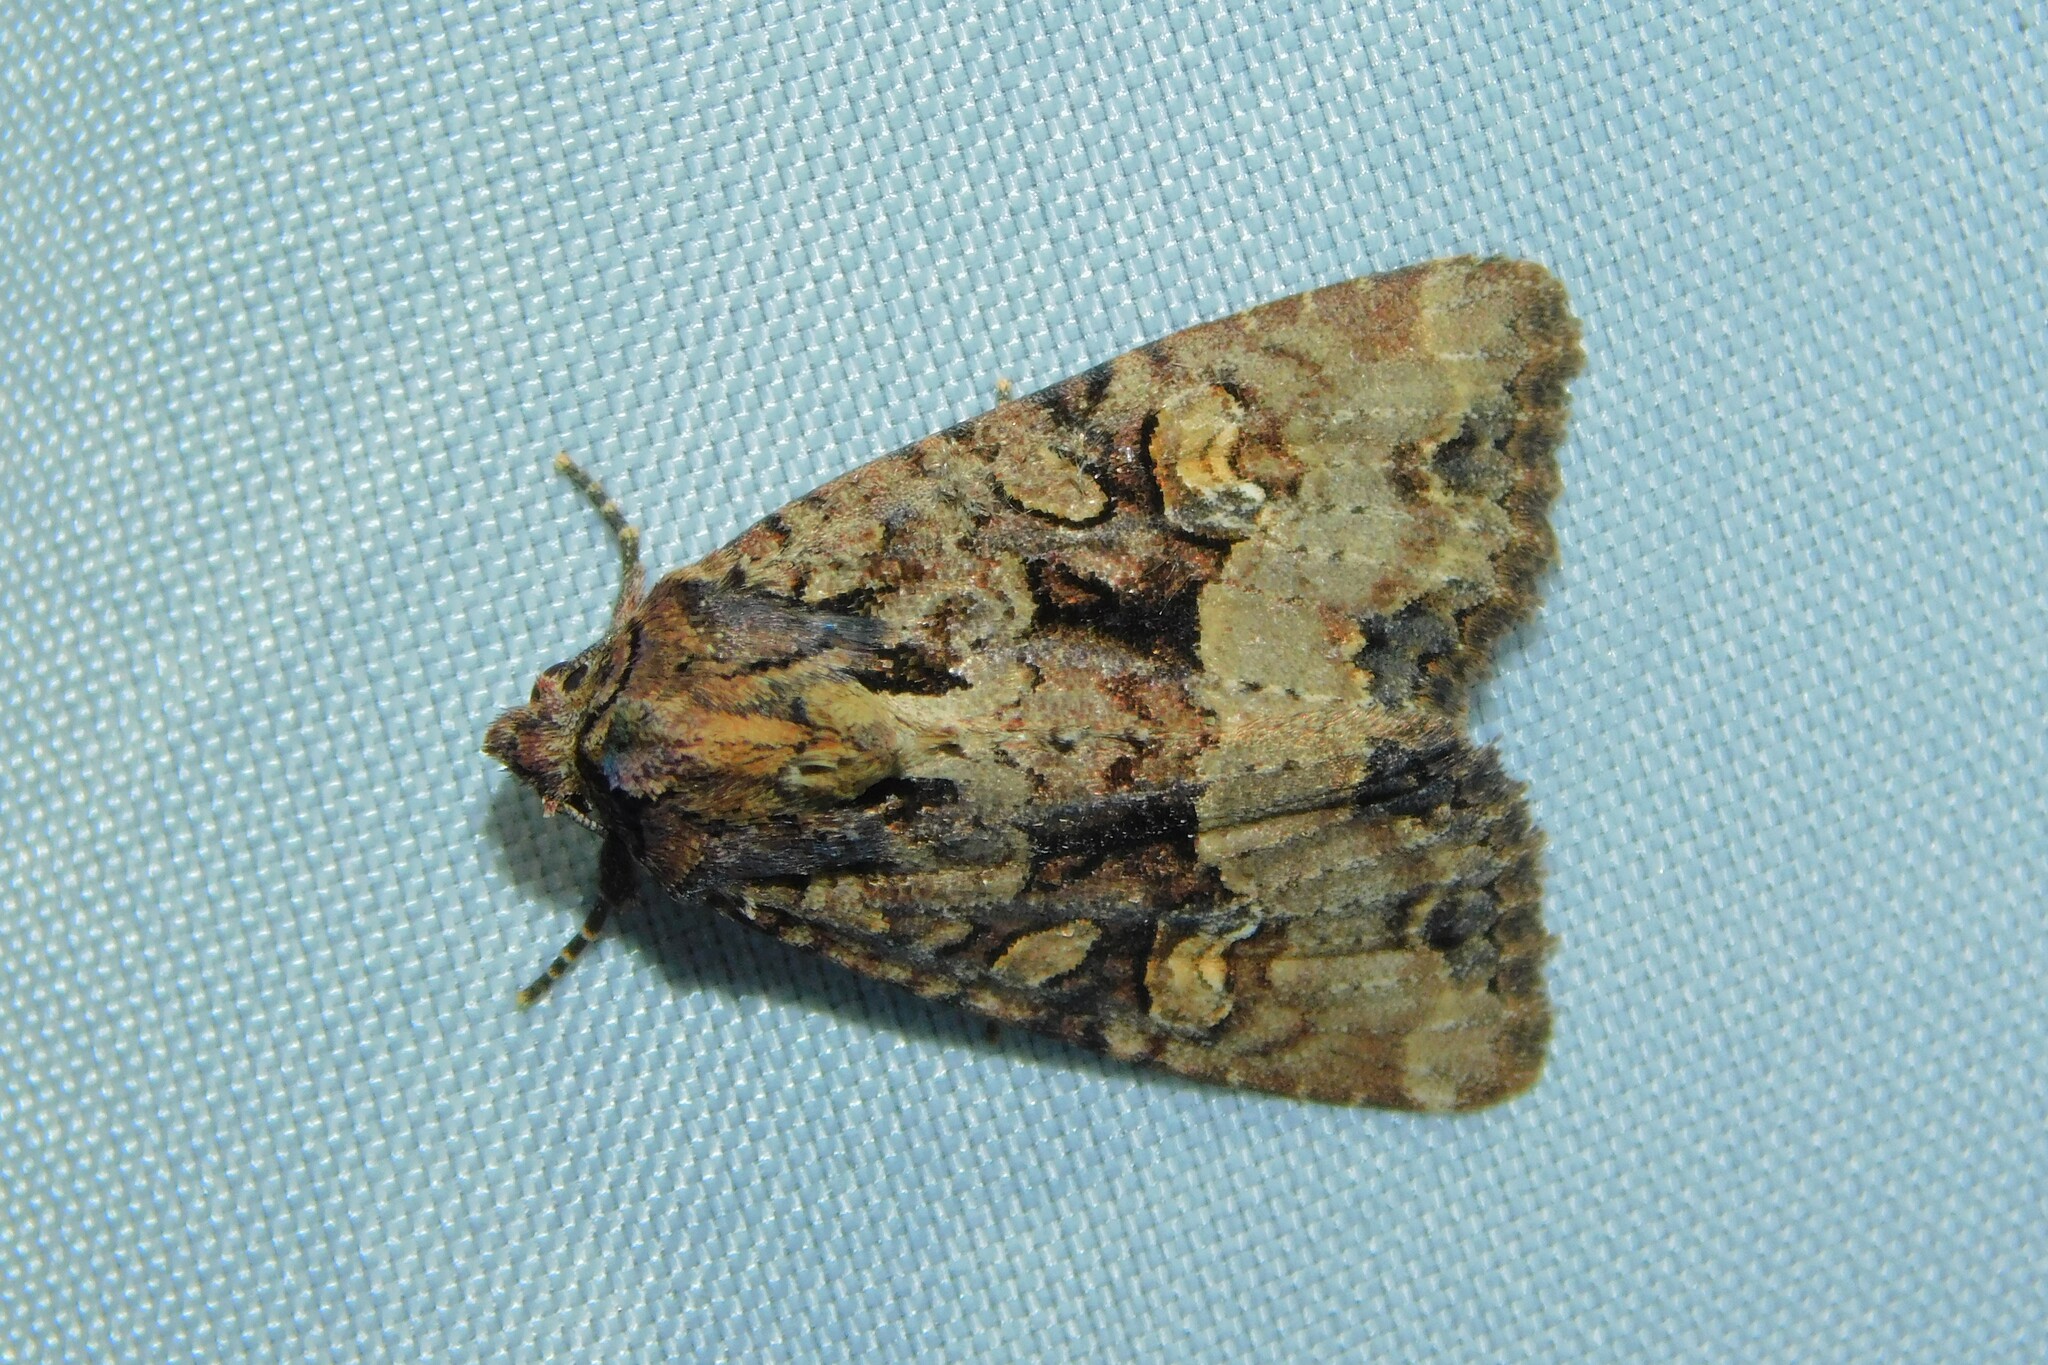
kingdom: Animalia
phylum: Arthropoda
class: Insecta
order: Lepidoptera
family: Noctuidae
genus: Mesapamea
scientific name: Mesapamea
